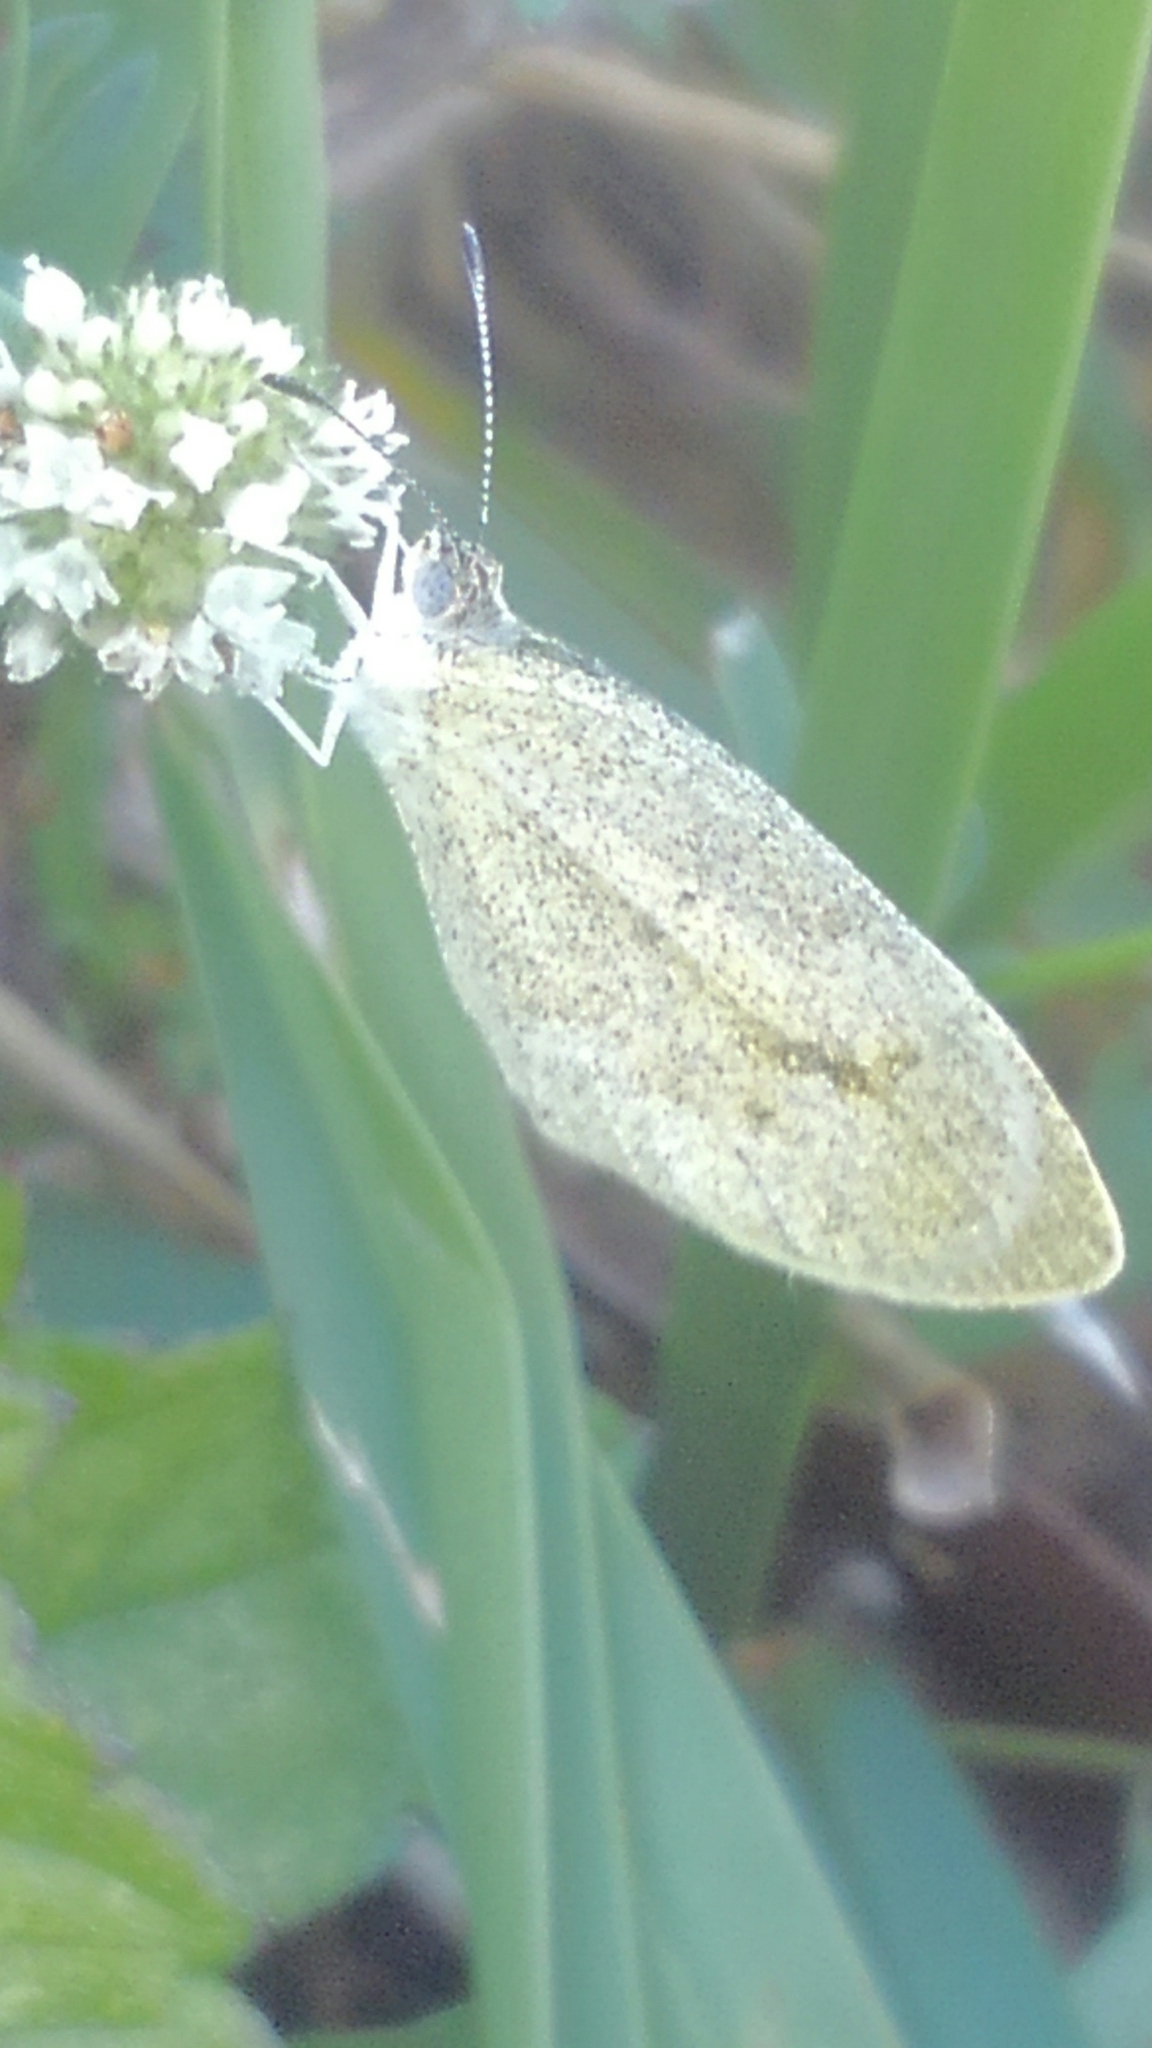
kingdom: Animalia
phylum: Arthropoda
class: Insecta
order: Lepidoptera
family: Pieridae
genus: Eurema
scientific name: Eurema daira
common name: Barred sulphur
